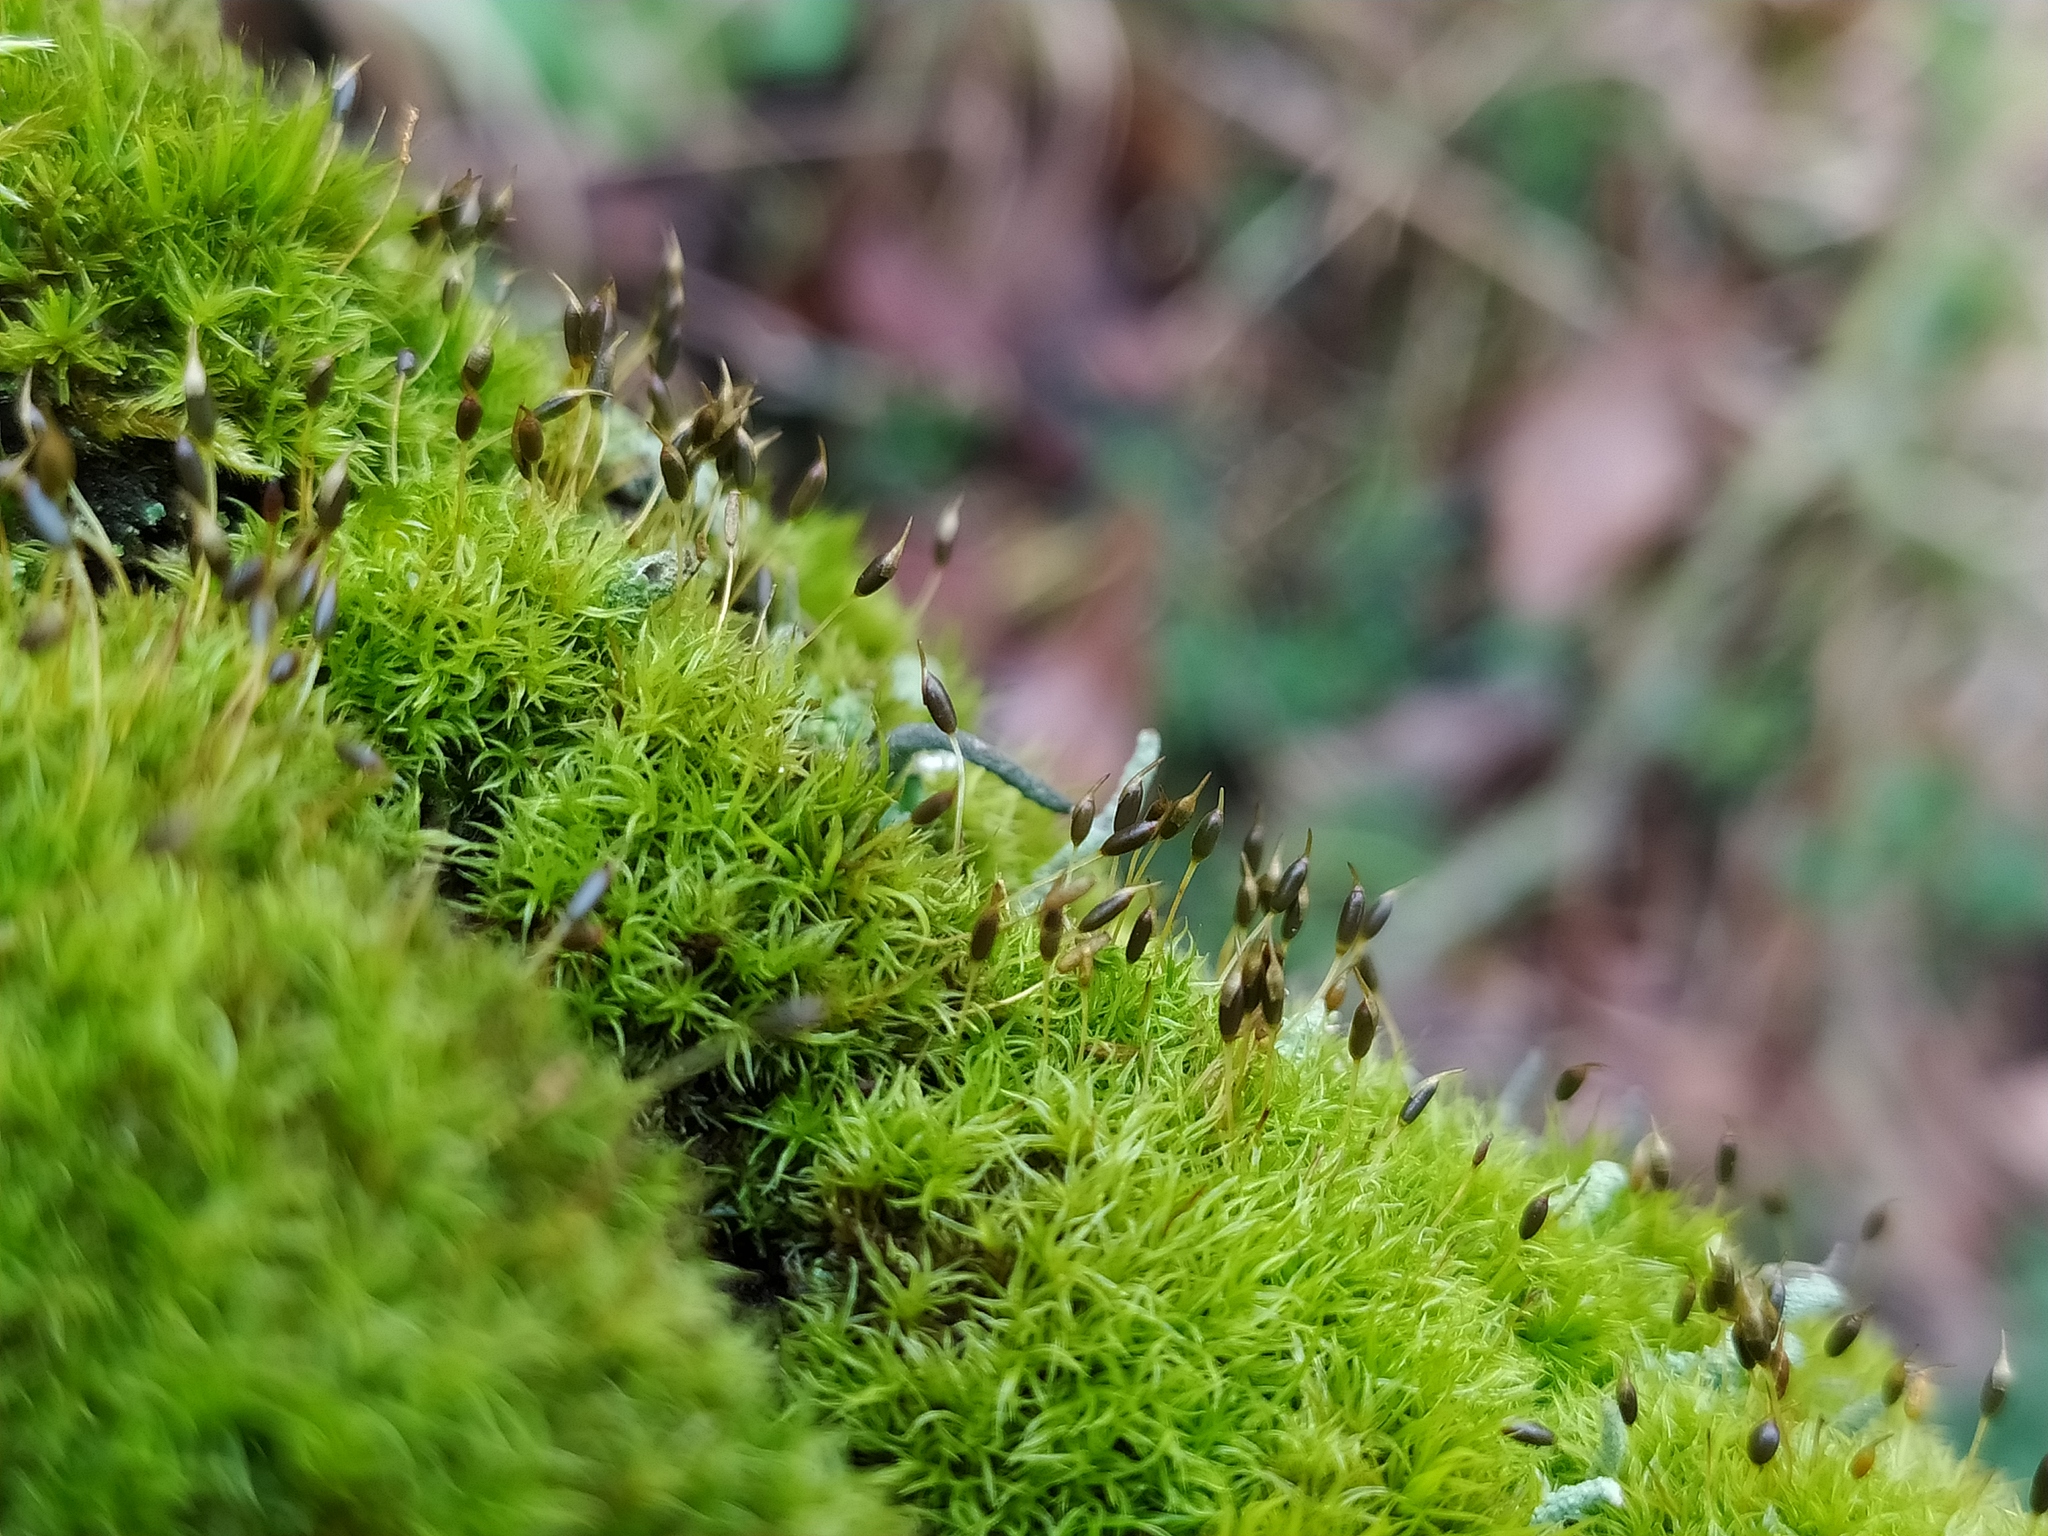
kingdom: Plantae
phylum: Bryophyta
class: Bryopsida
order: Dicranales
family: Rhabdoweisiaceae
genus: Dicranoweisia
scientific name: Dicranoweisia cirrata
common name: Common pincushion
